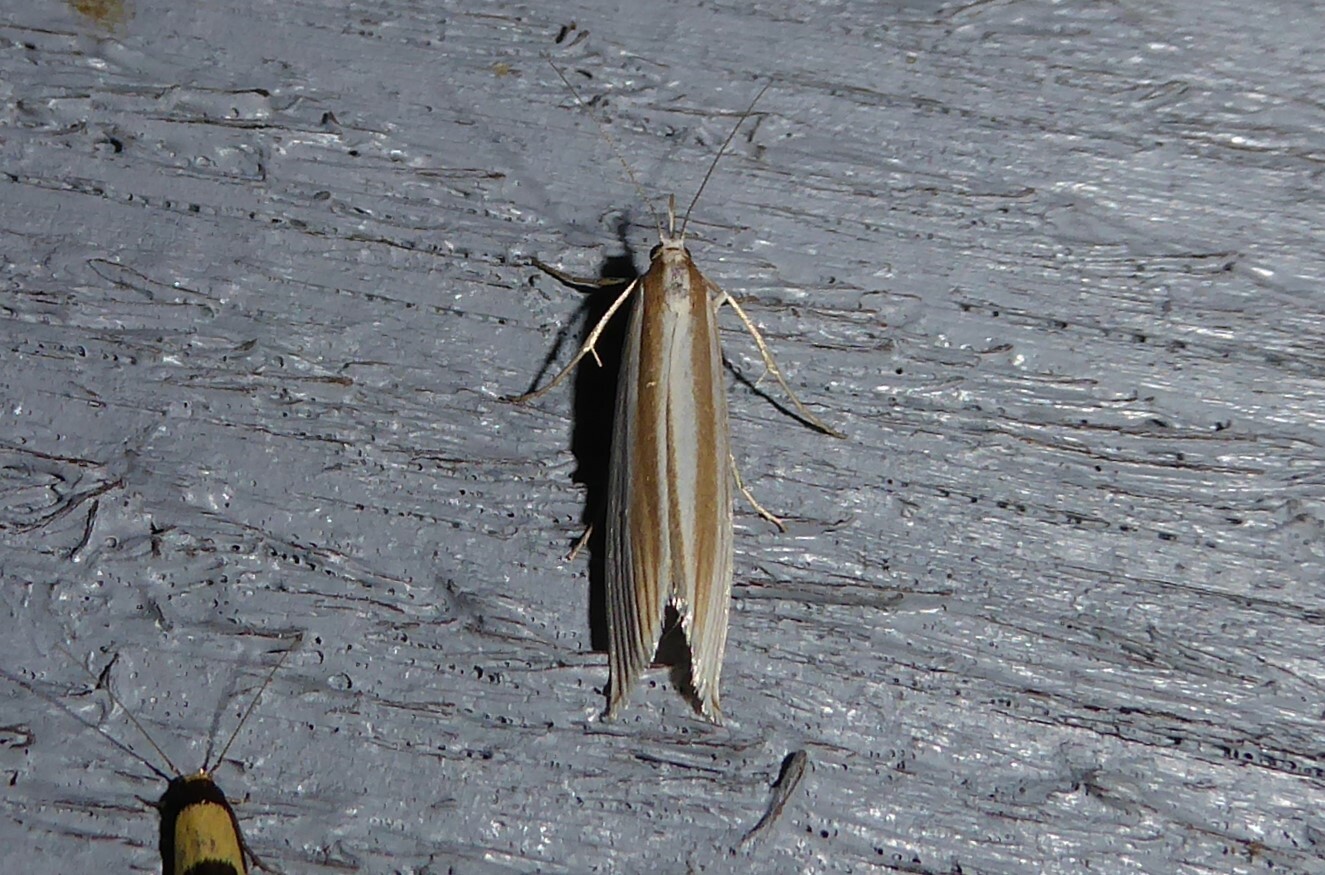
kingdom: Animalia
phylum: Arthropoda
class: Insecta
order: Lepidoptera
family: Crambidae
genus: Orocrambus
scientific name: Orocrambus angustipennis
